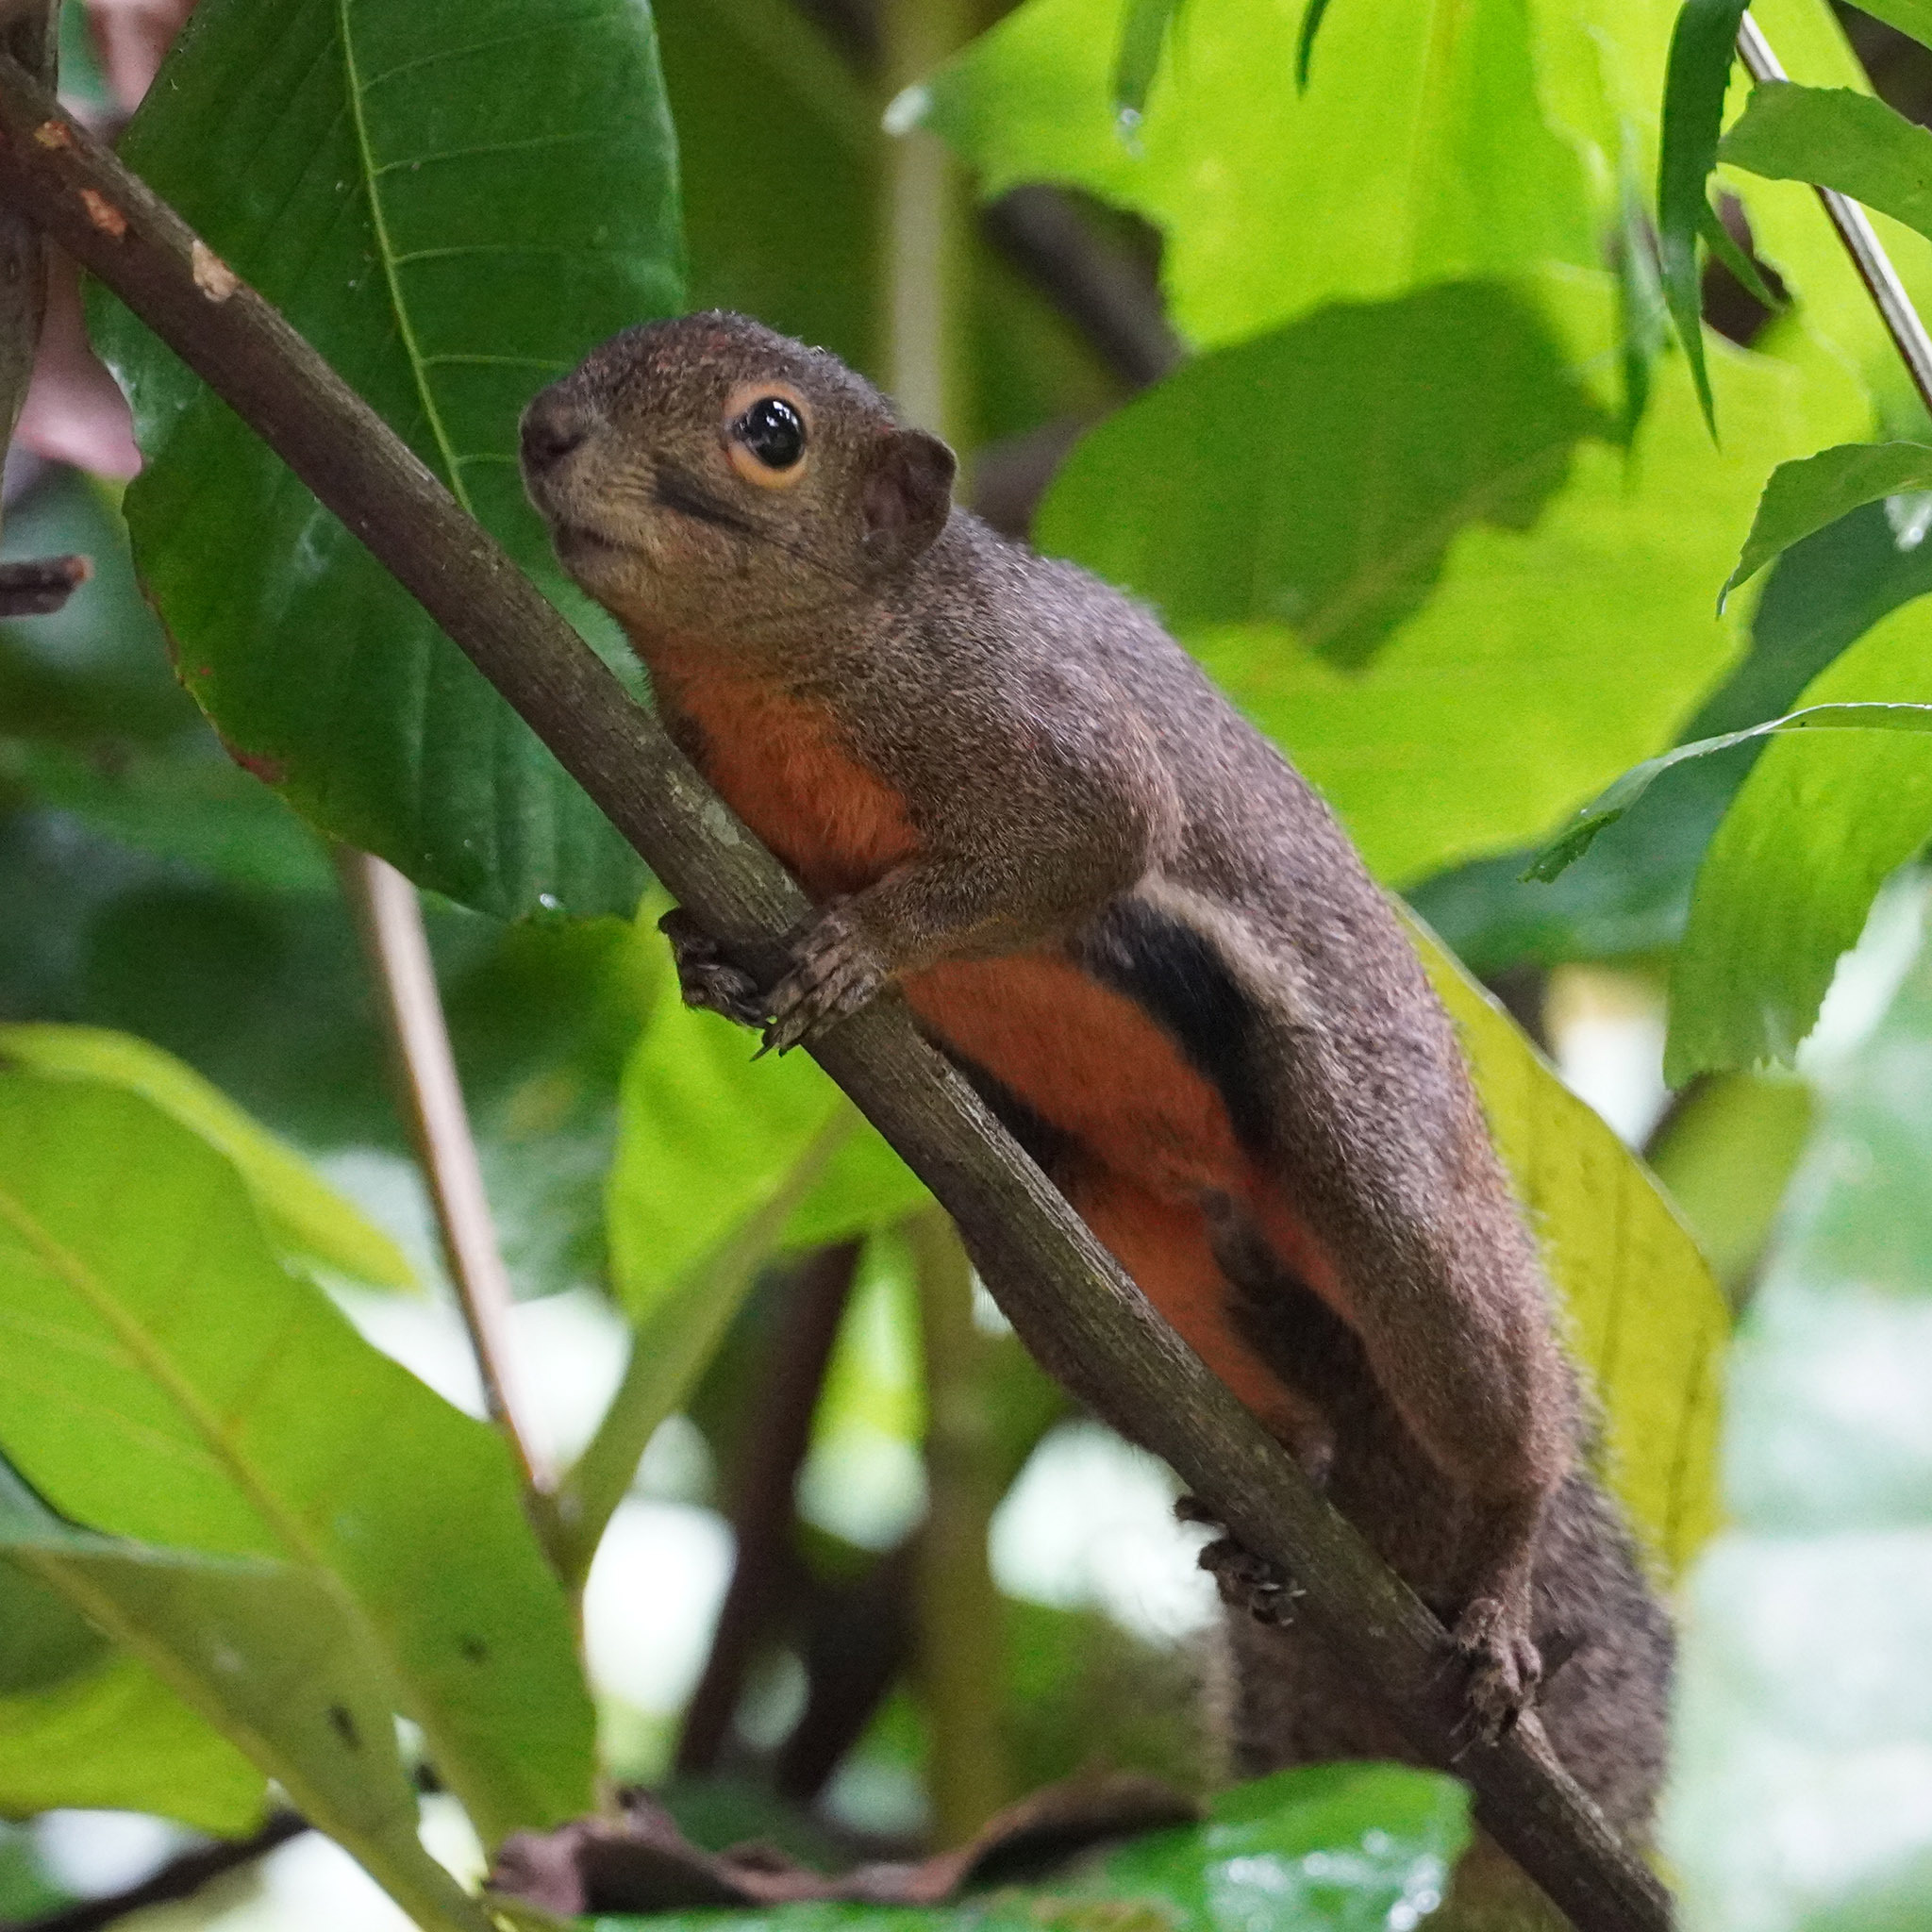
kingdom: Animalia
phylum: Chordata
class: Mammalia
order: Rodentia
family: Sciuridae
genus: Callosciurus
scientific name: Callosciurus notatus
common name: Plantain squirrel
